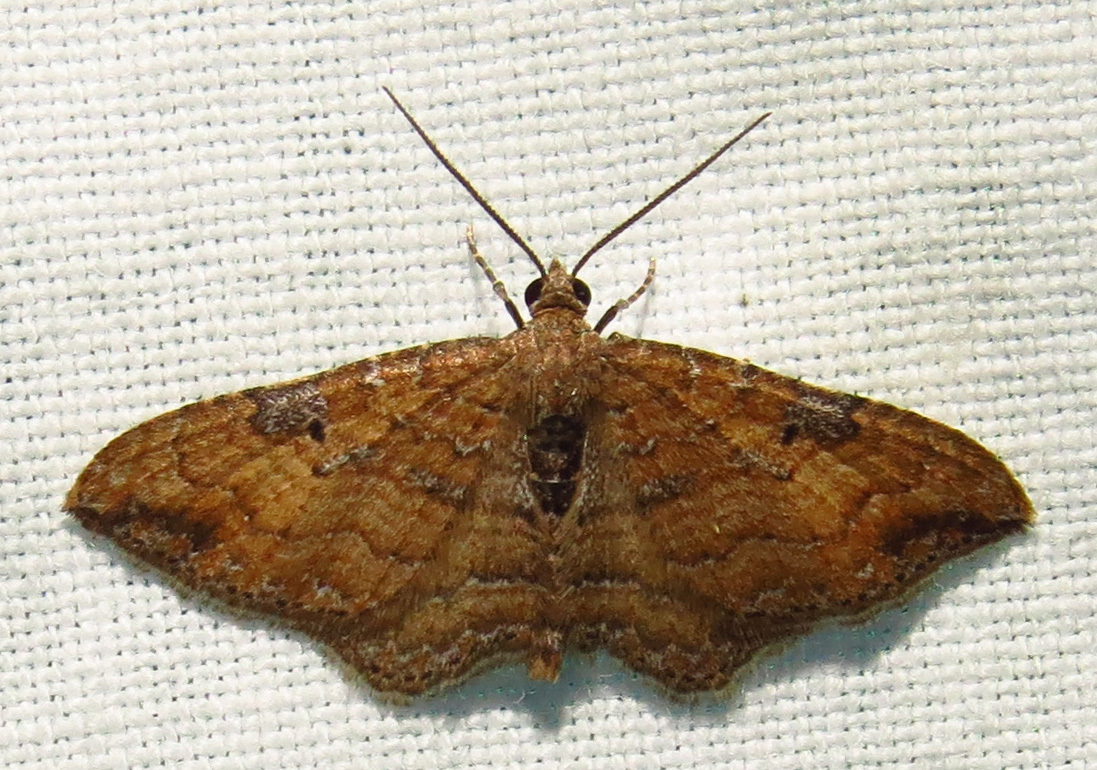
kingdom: Animalia
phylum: Arthropoda
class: Insecta
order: Lepidoptera
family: Geometridae
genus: Orthonama
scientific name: Orthonama obstipata
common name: The gem
